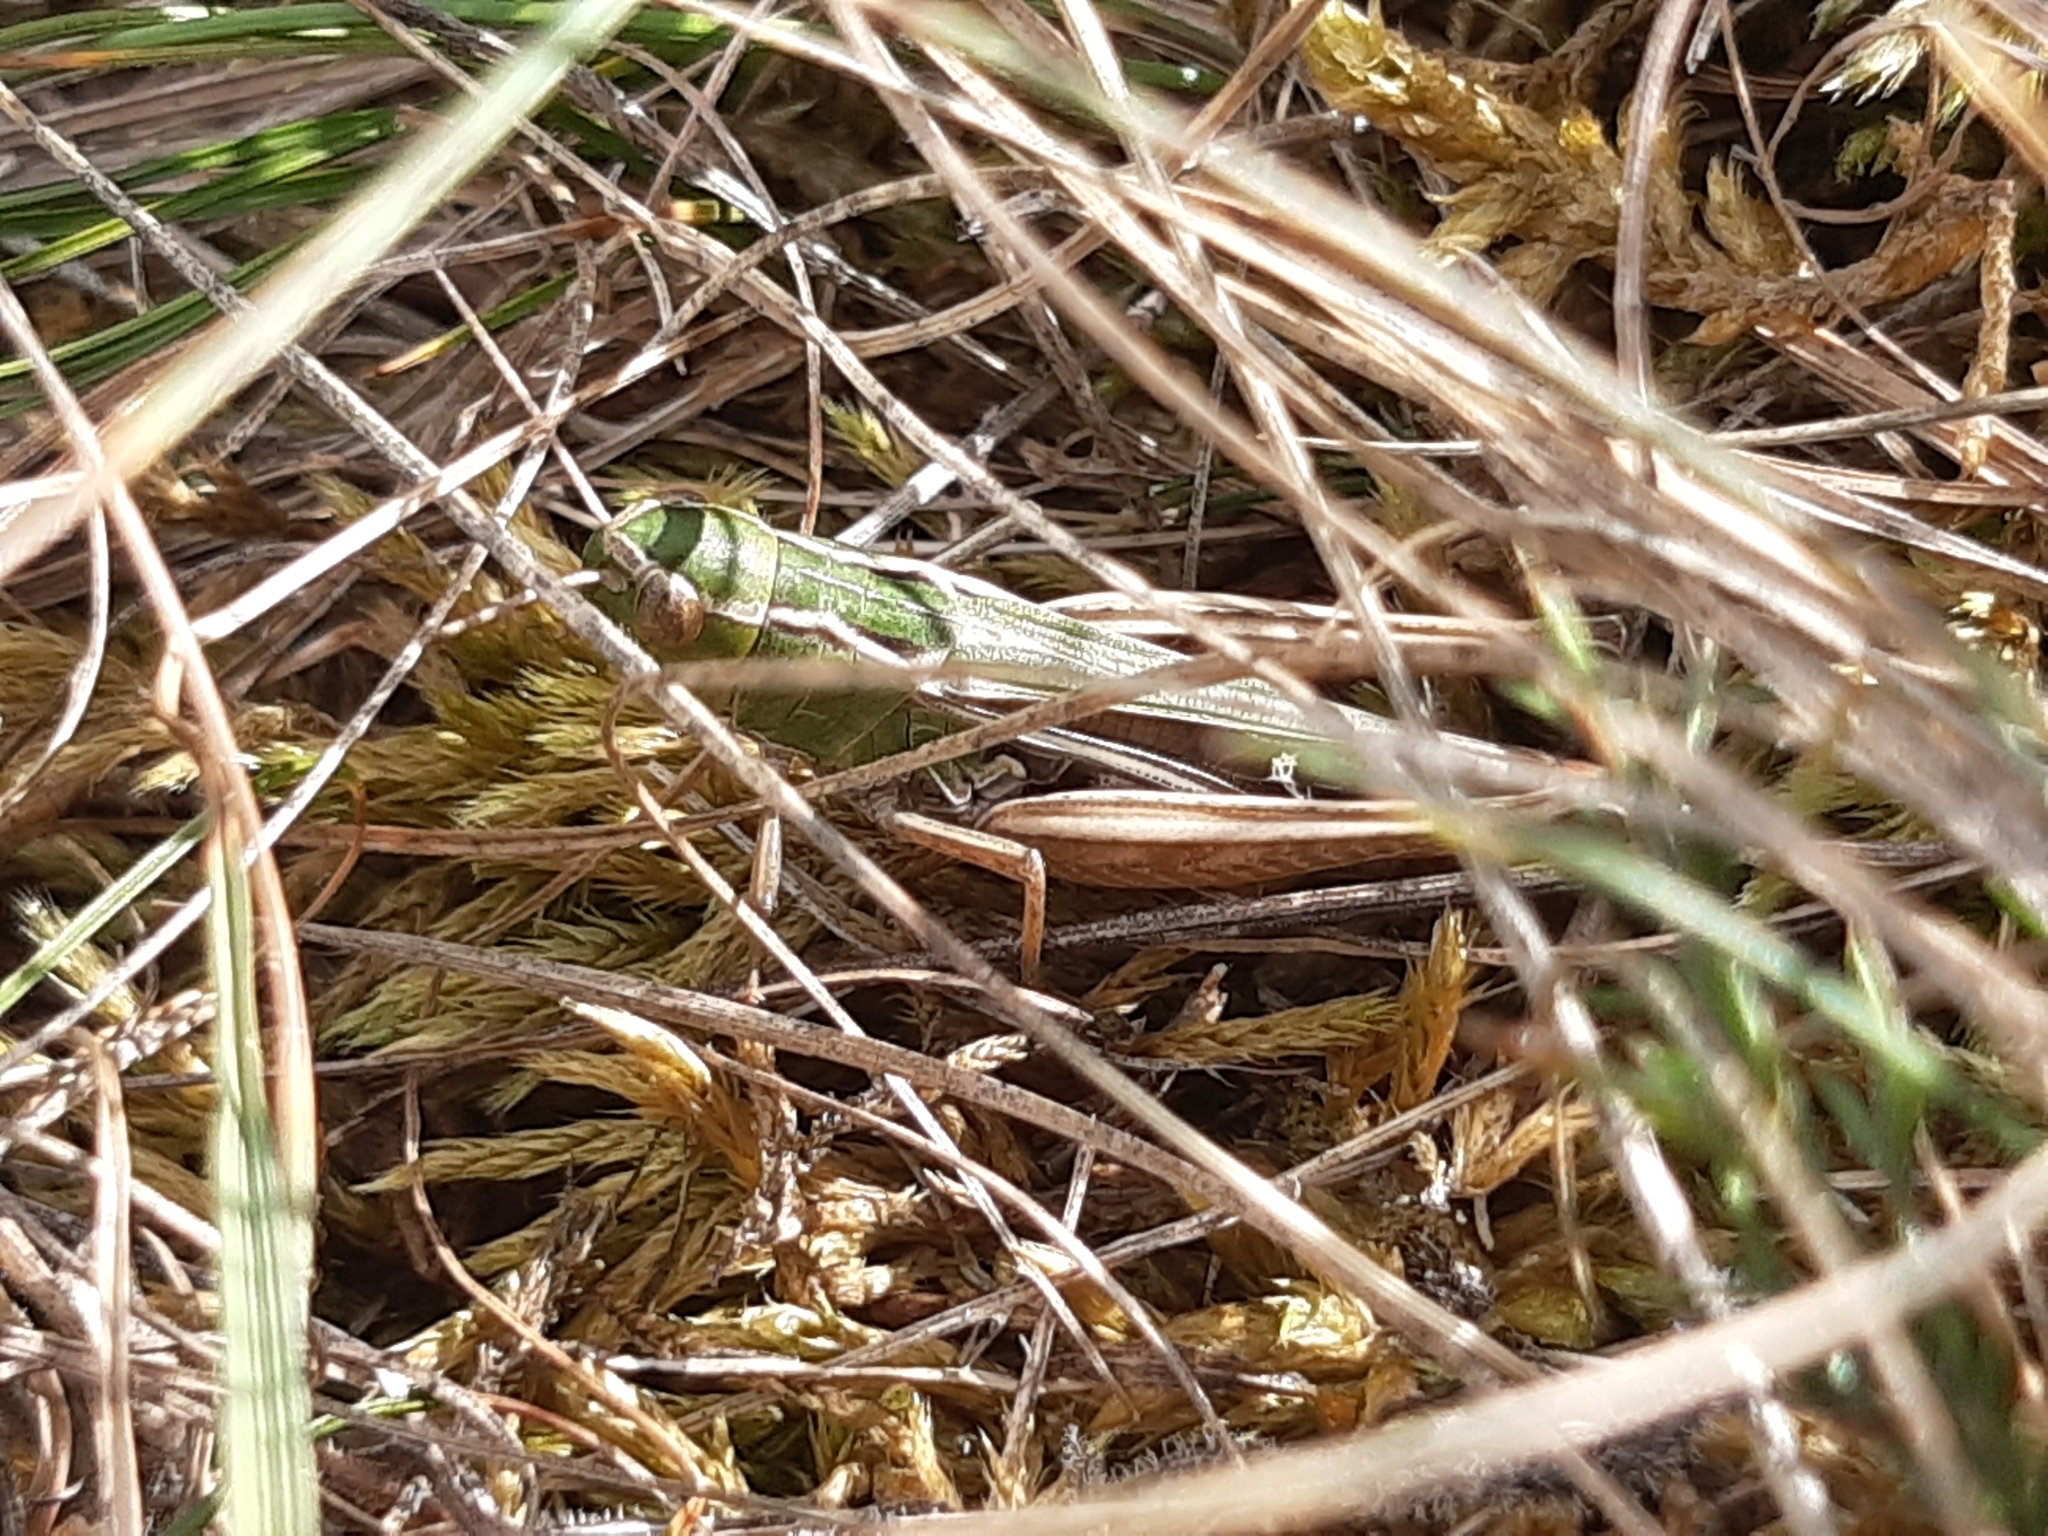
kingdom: Animalia
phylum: Arthropoda
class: Insecta
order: Orthoptera
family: Acrididae
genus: Stenobothrus
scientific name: Stenobothrus lineatus
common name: Stripe-winged grasshopper
